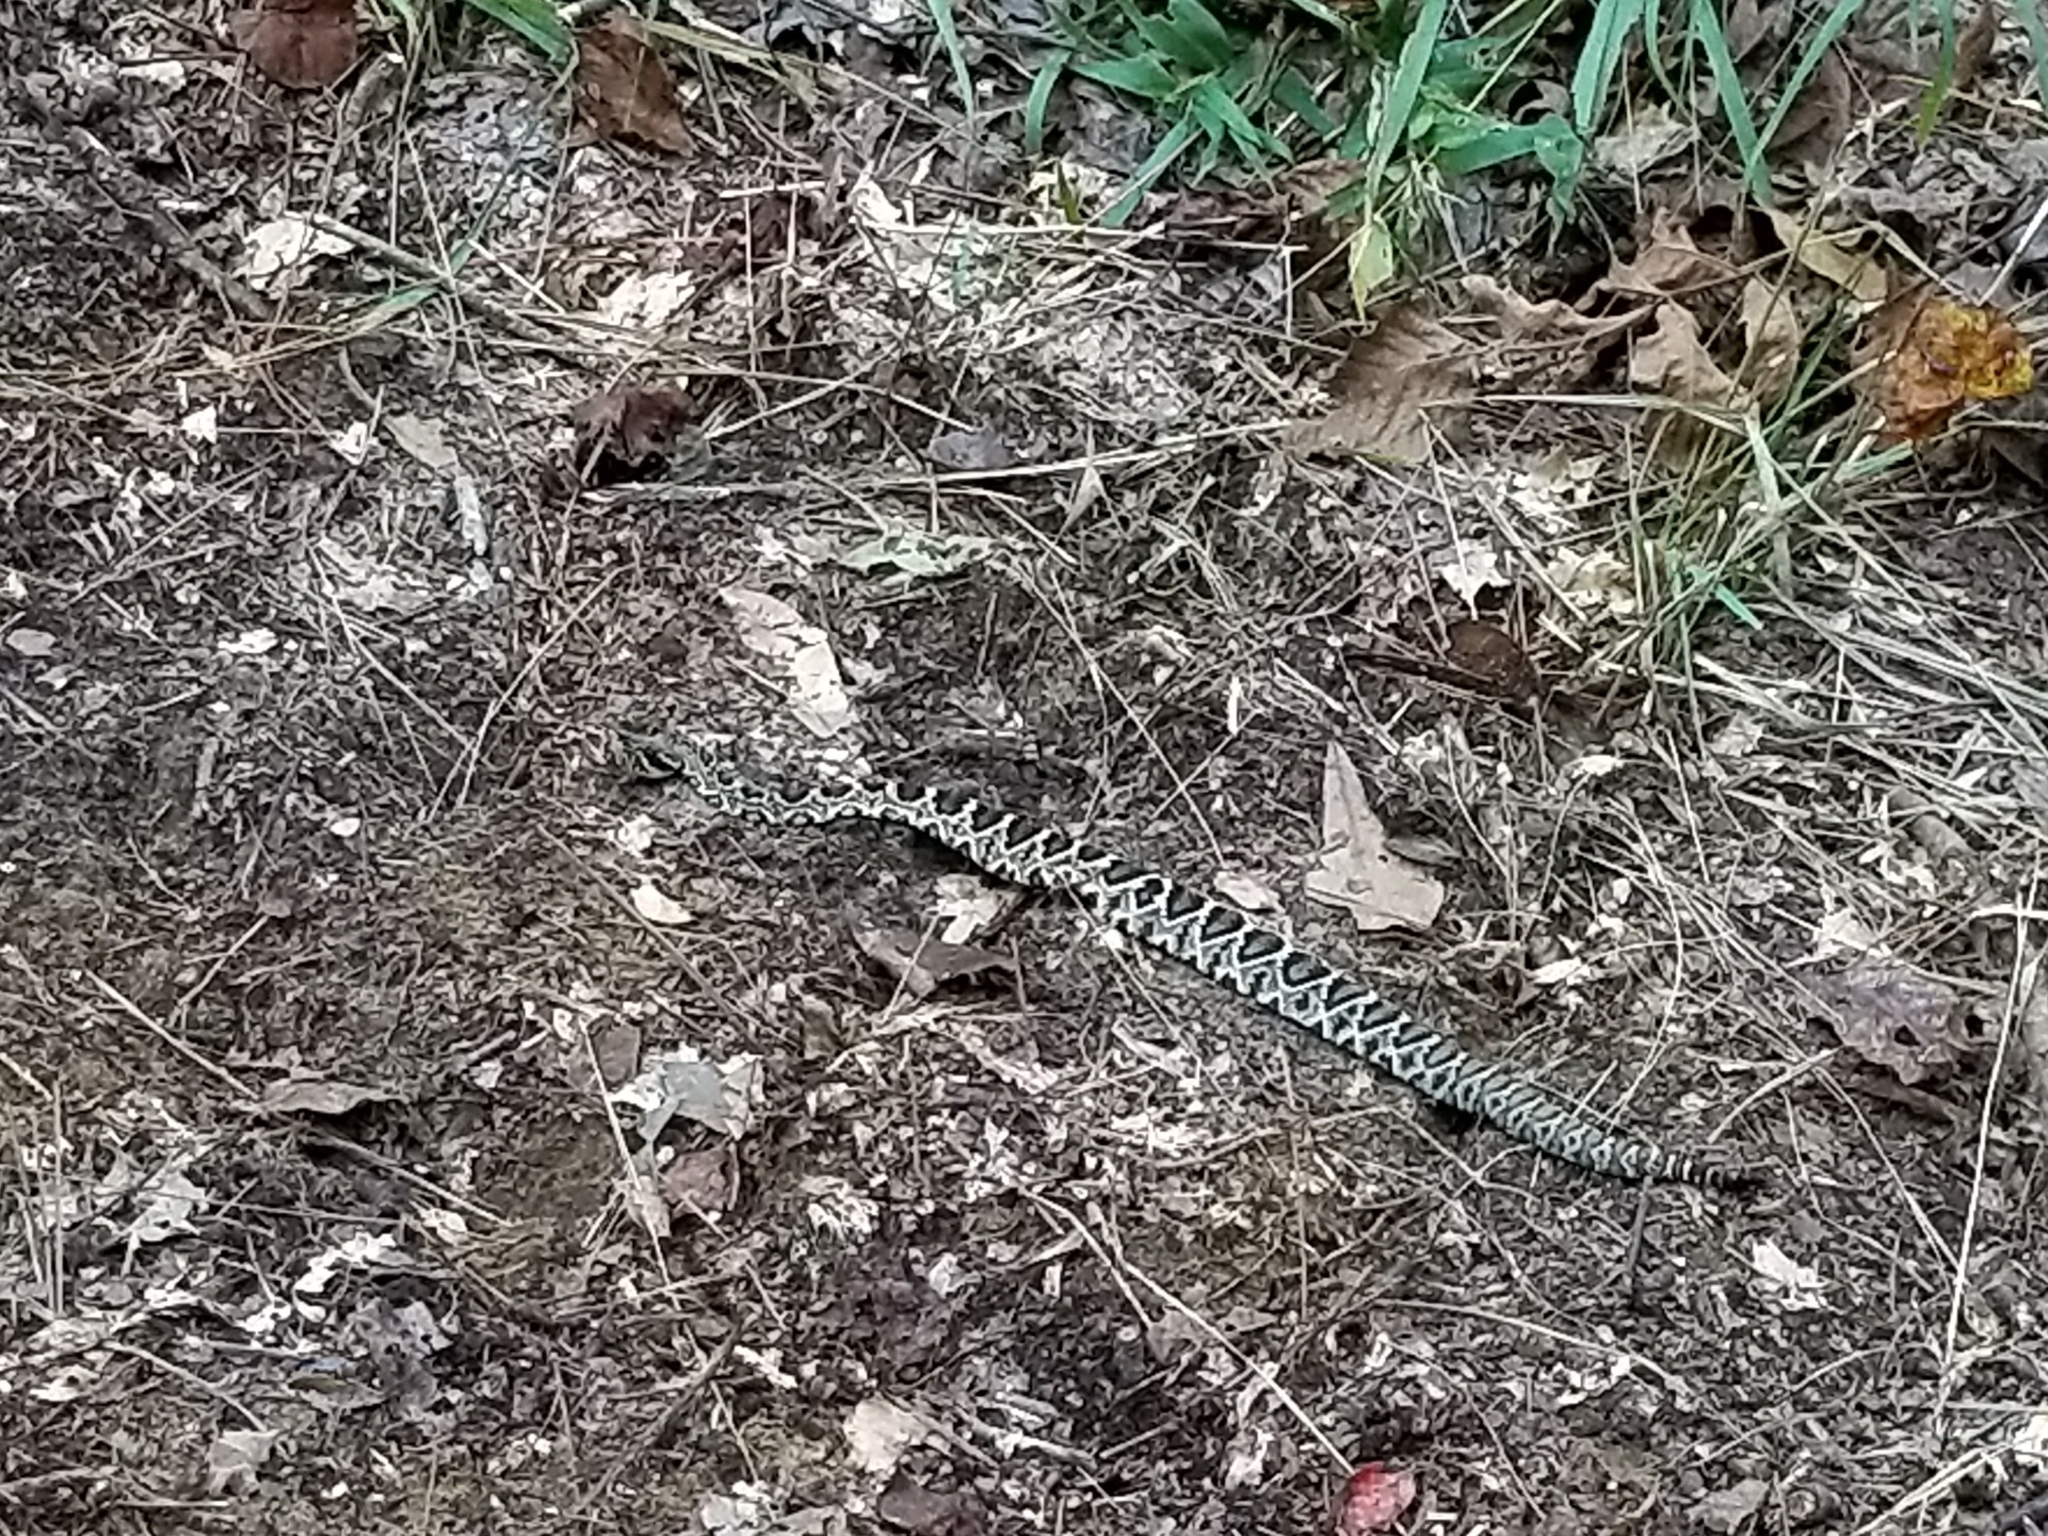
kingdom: Animalia
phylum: Chordata
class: Squamata
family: Viperidae
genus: Crotalus
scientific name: Crotalus adamanteus
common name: Eastern diamondback rattlesnake
